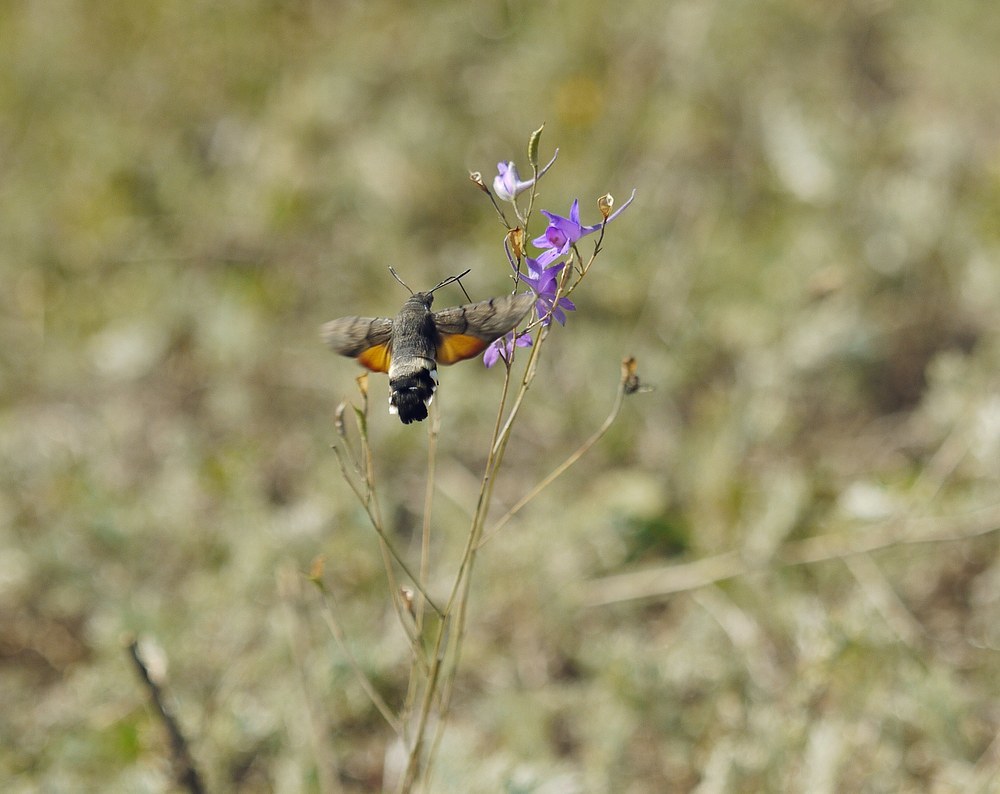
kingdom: Animalia
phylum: Arthropoda
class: Insecta
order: Lepidoptera
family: Sphingidae
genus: Macroglossum
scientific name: Macroglossum stellatarum
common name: Humming-bird hawk-moth
